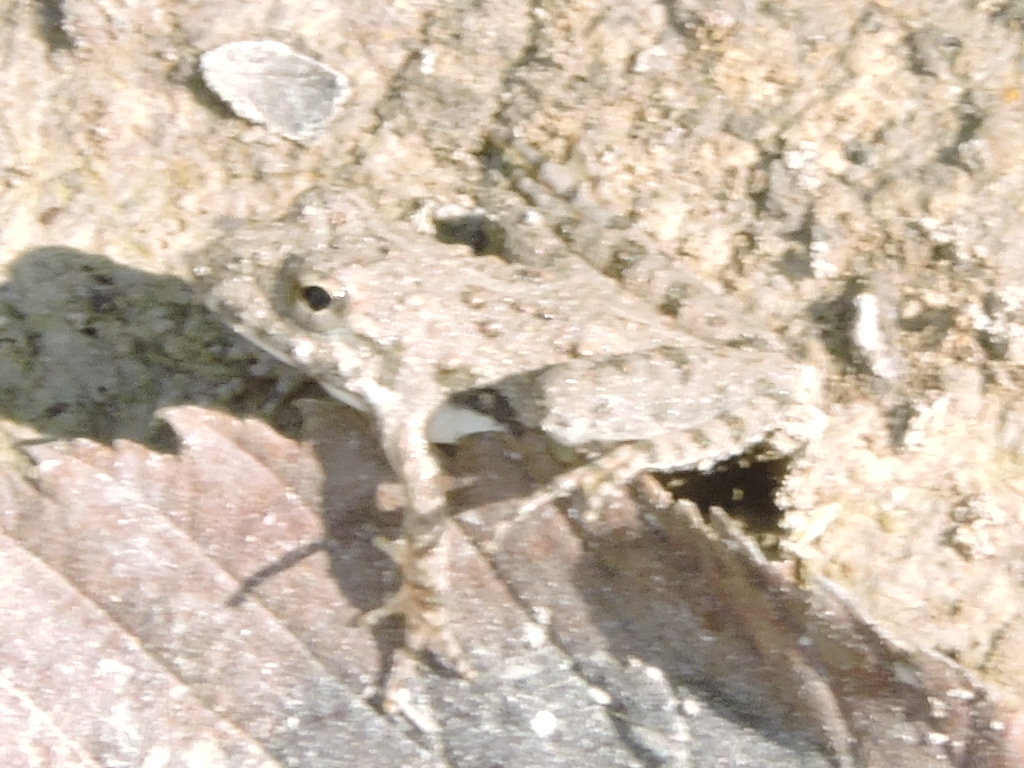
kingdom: Animalia
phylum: Chordata
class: Amphibia
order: Anura
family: Hylidae
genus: Acris
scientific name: Acris blanchardi
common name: Blanchard's cricket frog
